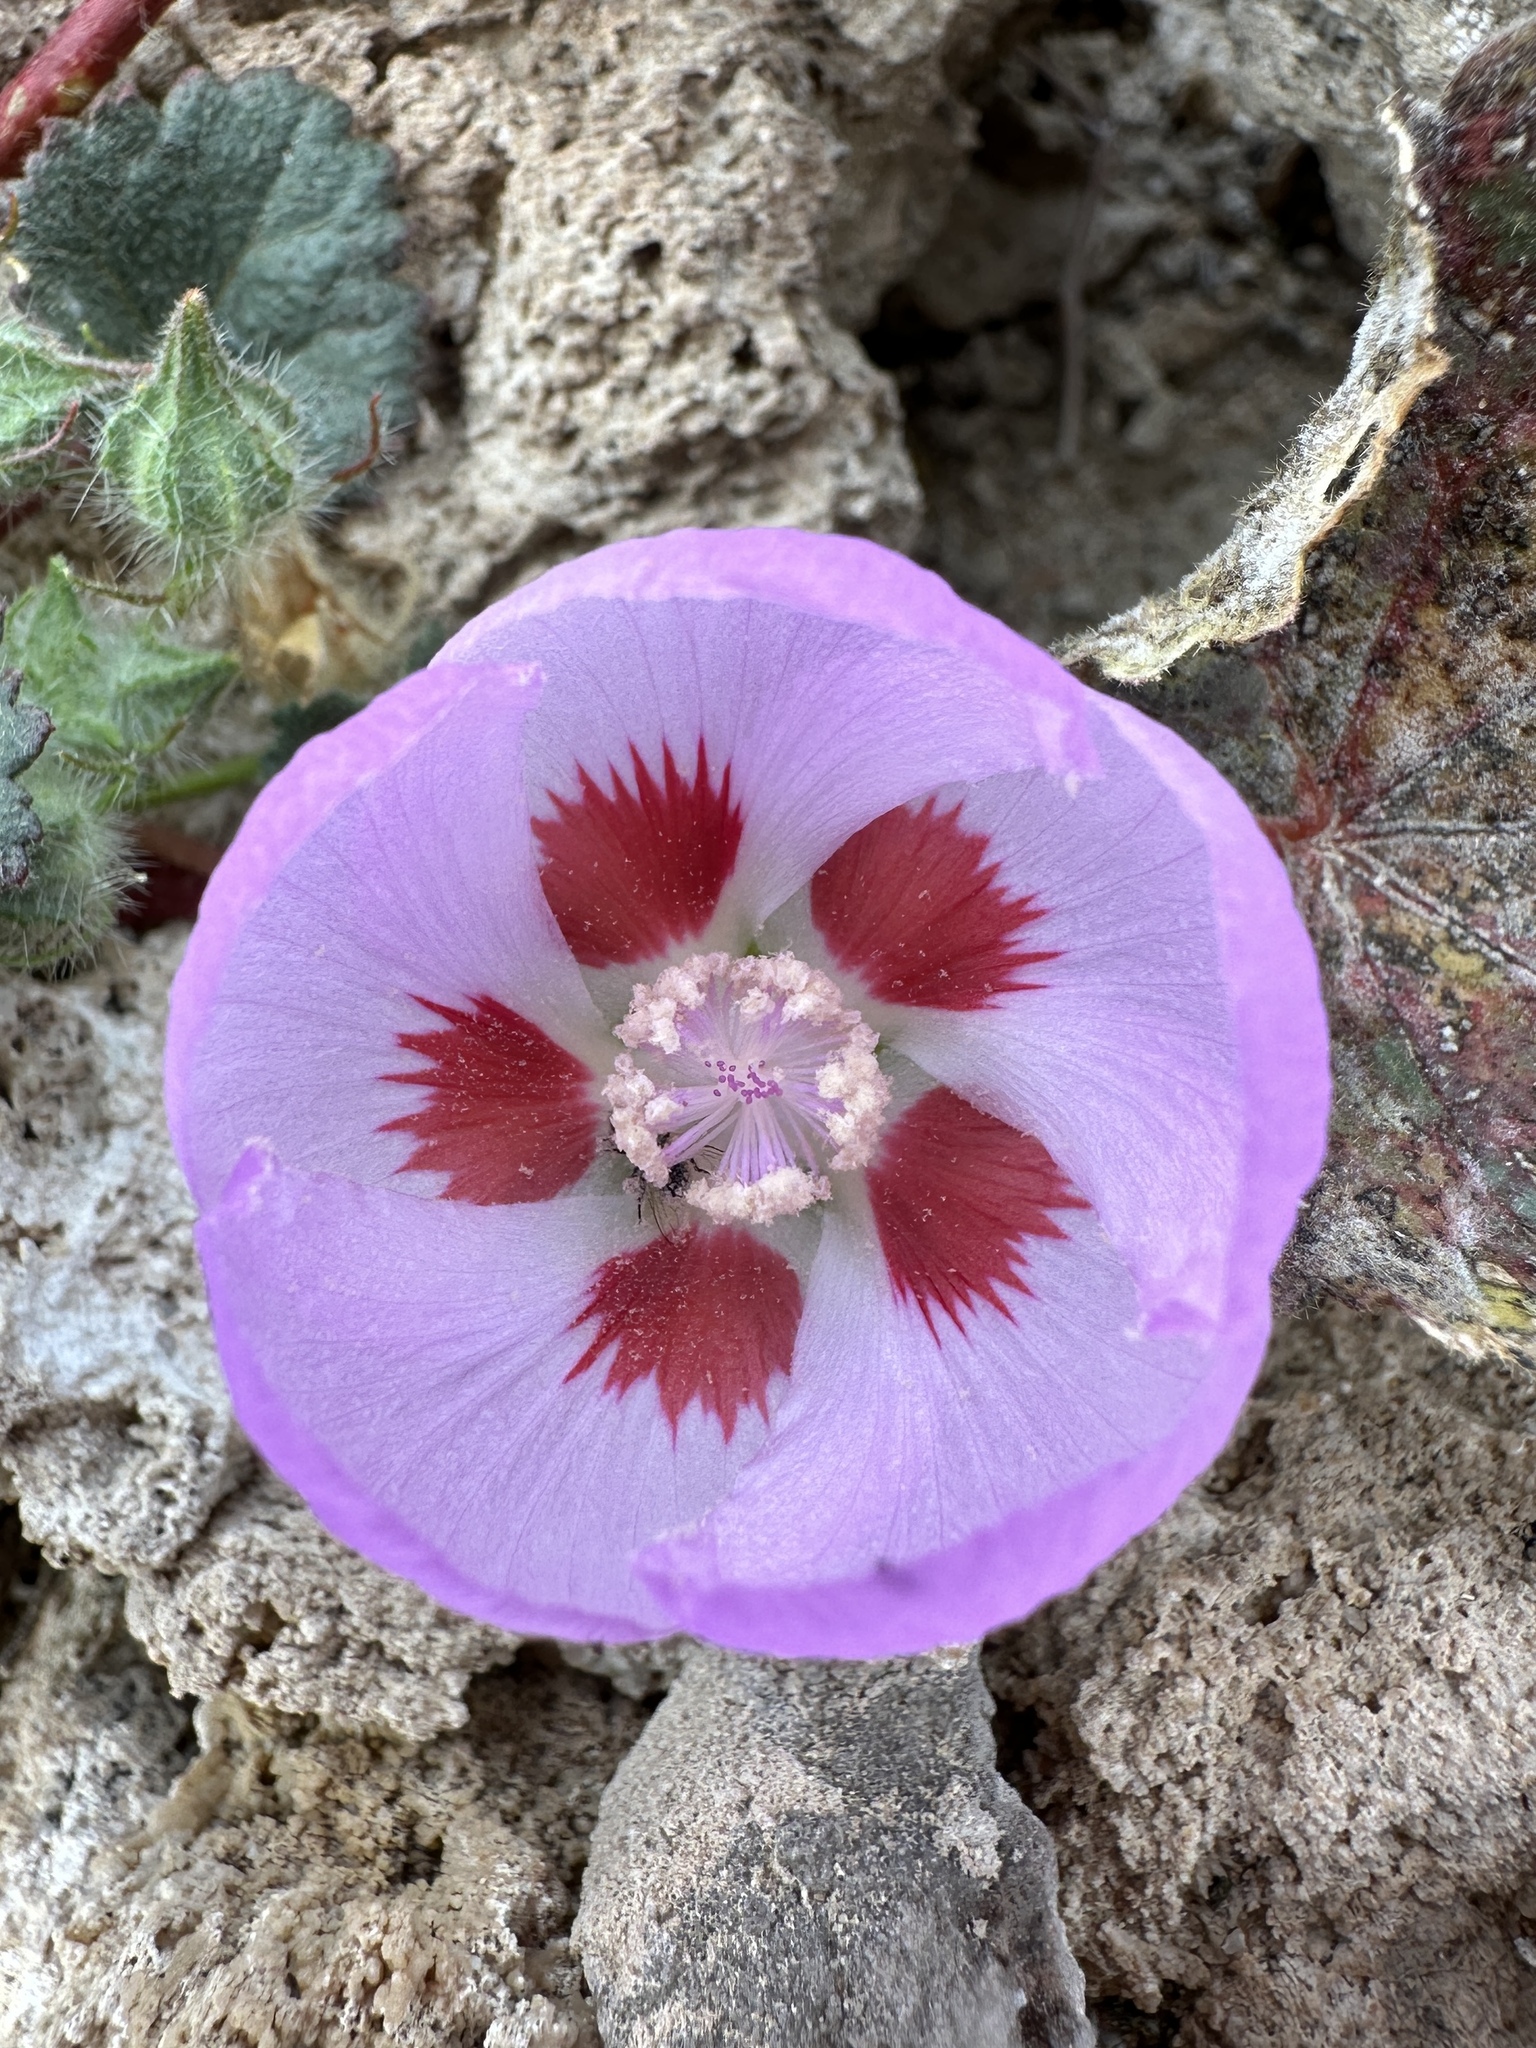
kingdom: Plantae
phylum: Tracheophyta
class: Magnoliopsida
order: Malvales
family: Malvaceae
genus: Eremalche
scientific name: Eremalche rotundifolia
